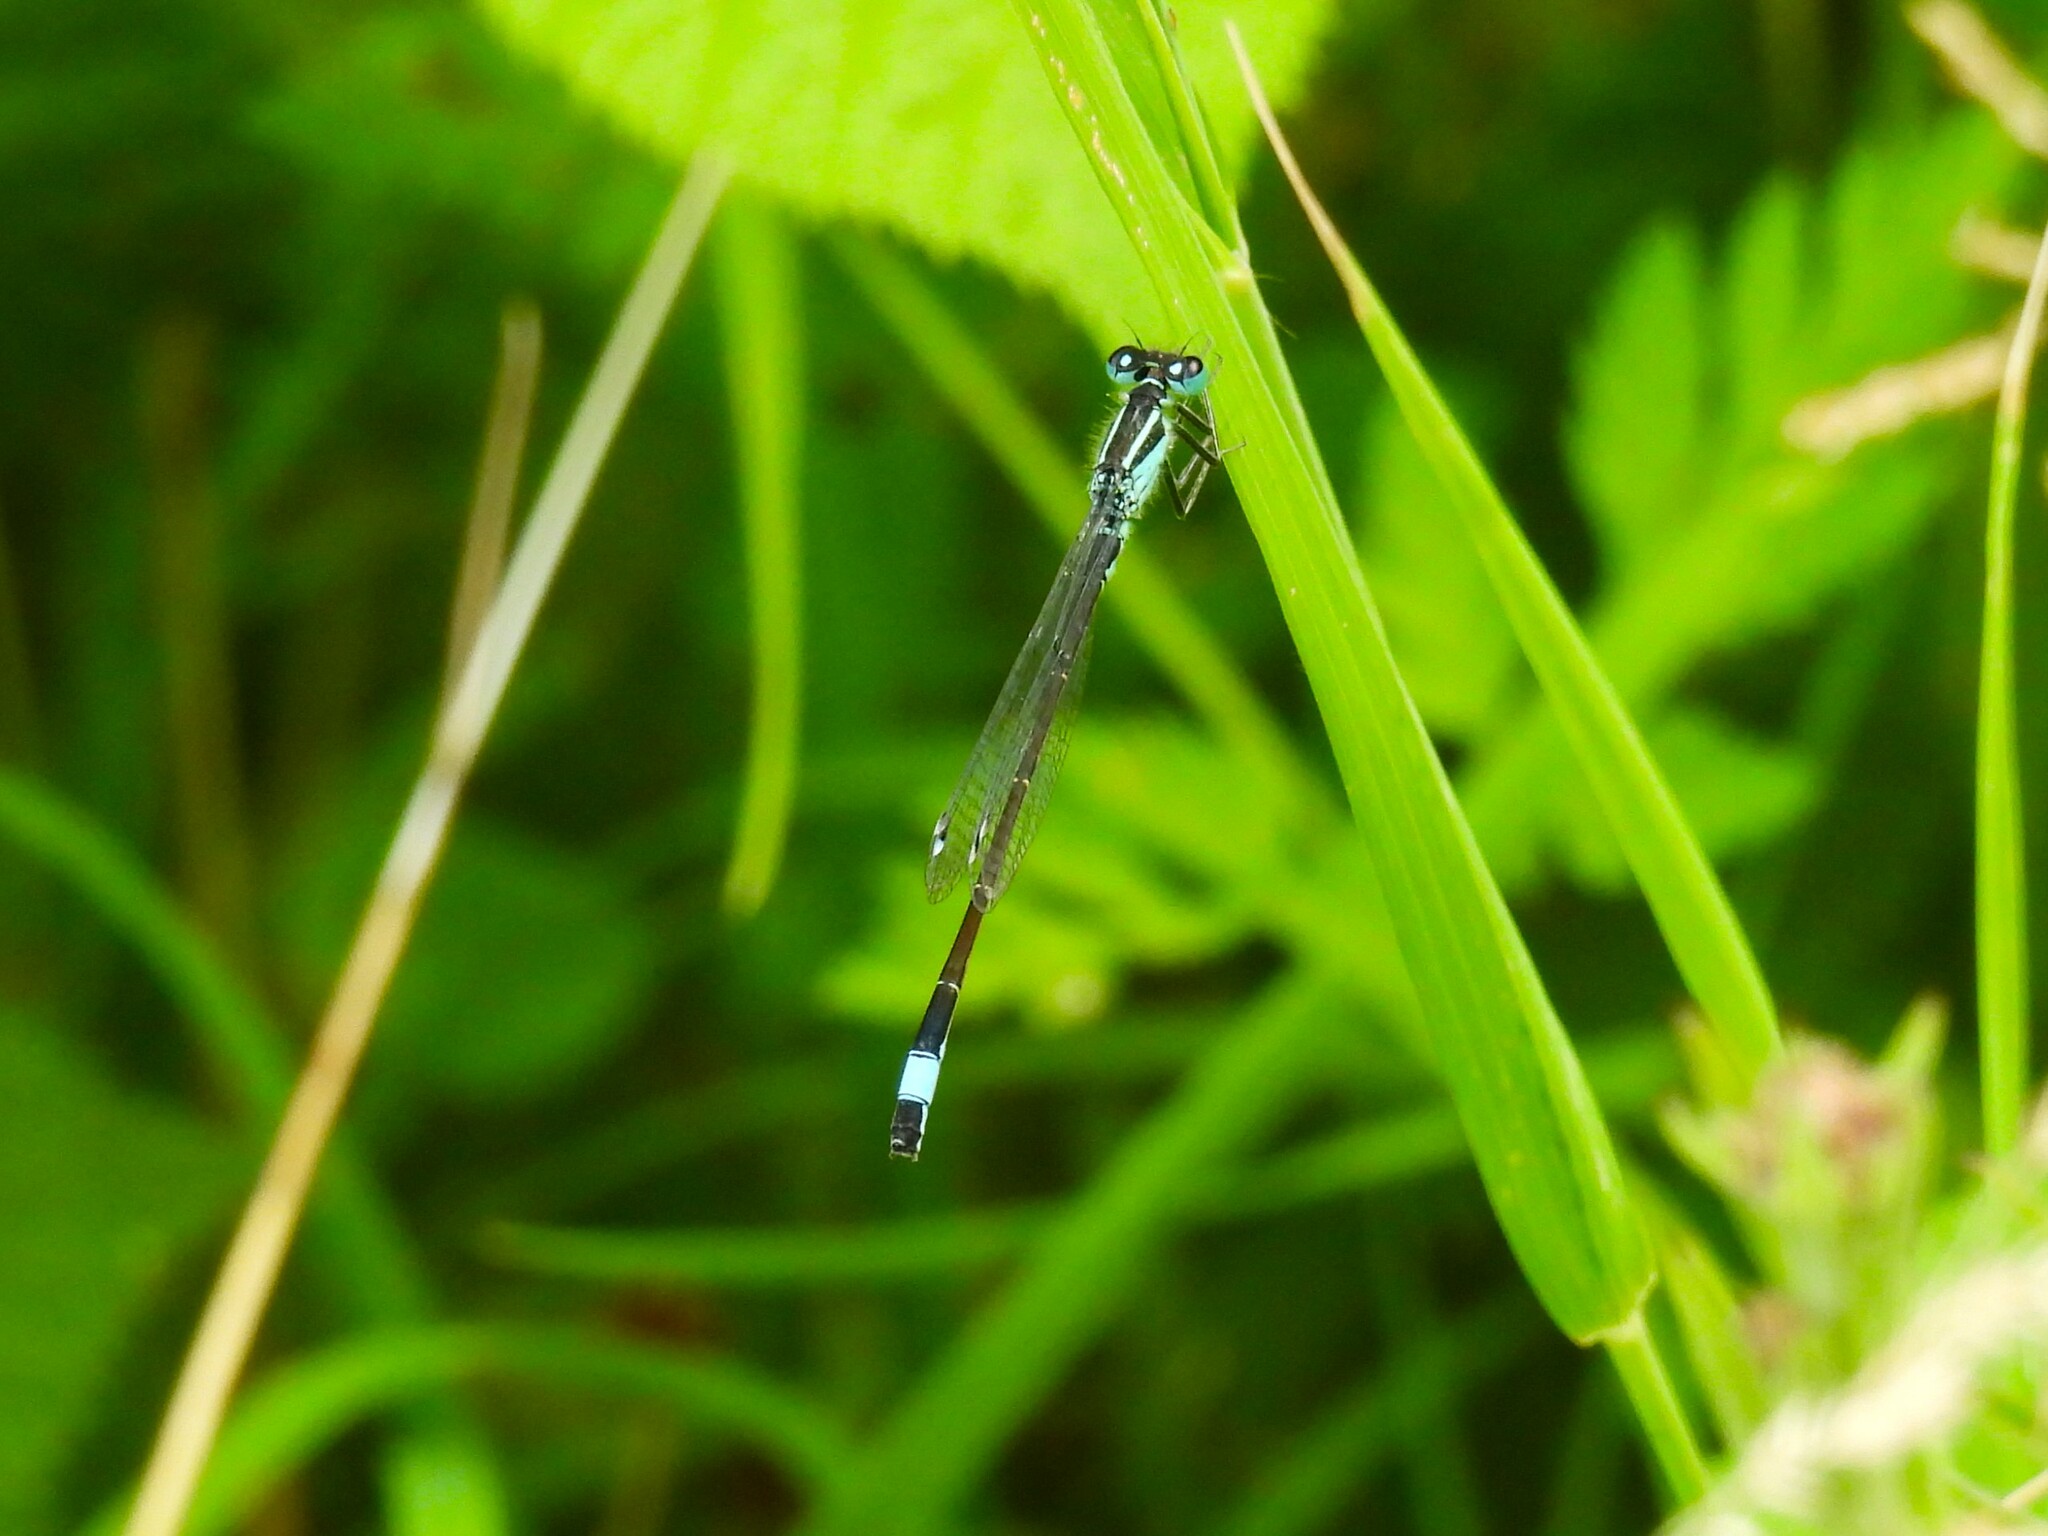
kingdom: Animalia
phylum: Arthropoda
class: Insecta
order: Odonata
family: Coenagrionidae
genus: Ischnura
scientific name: Ischnura elegans
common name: Blue-tailed damselfly
